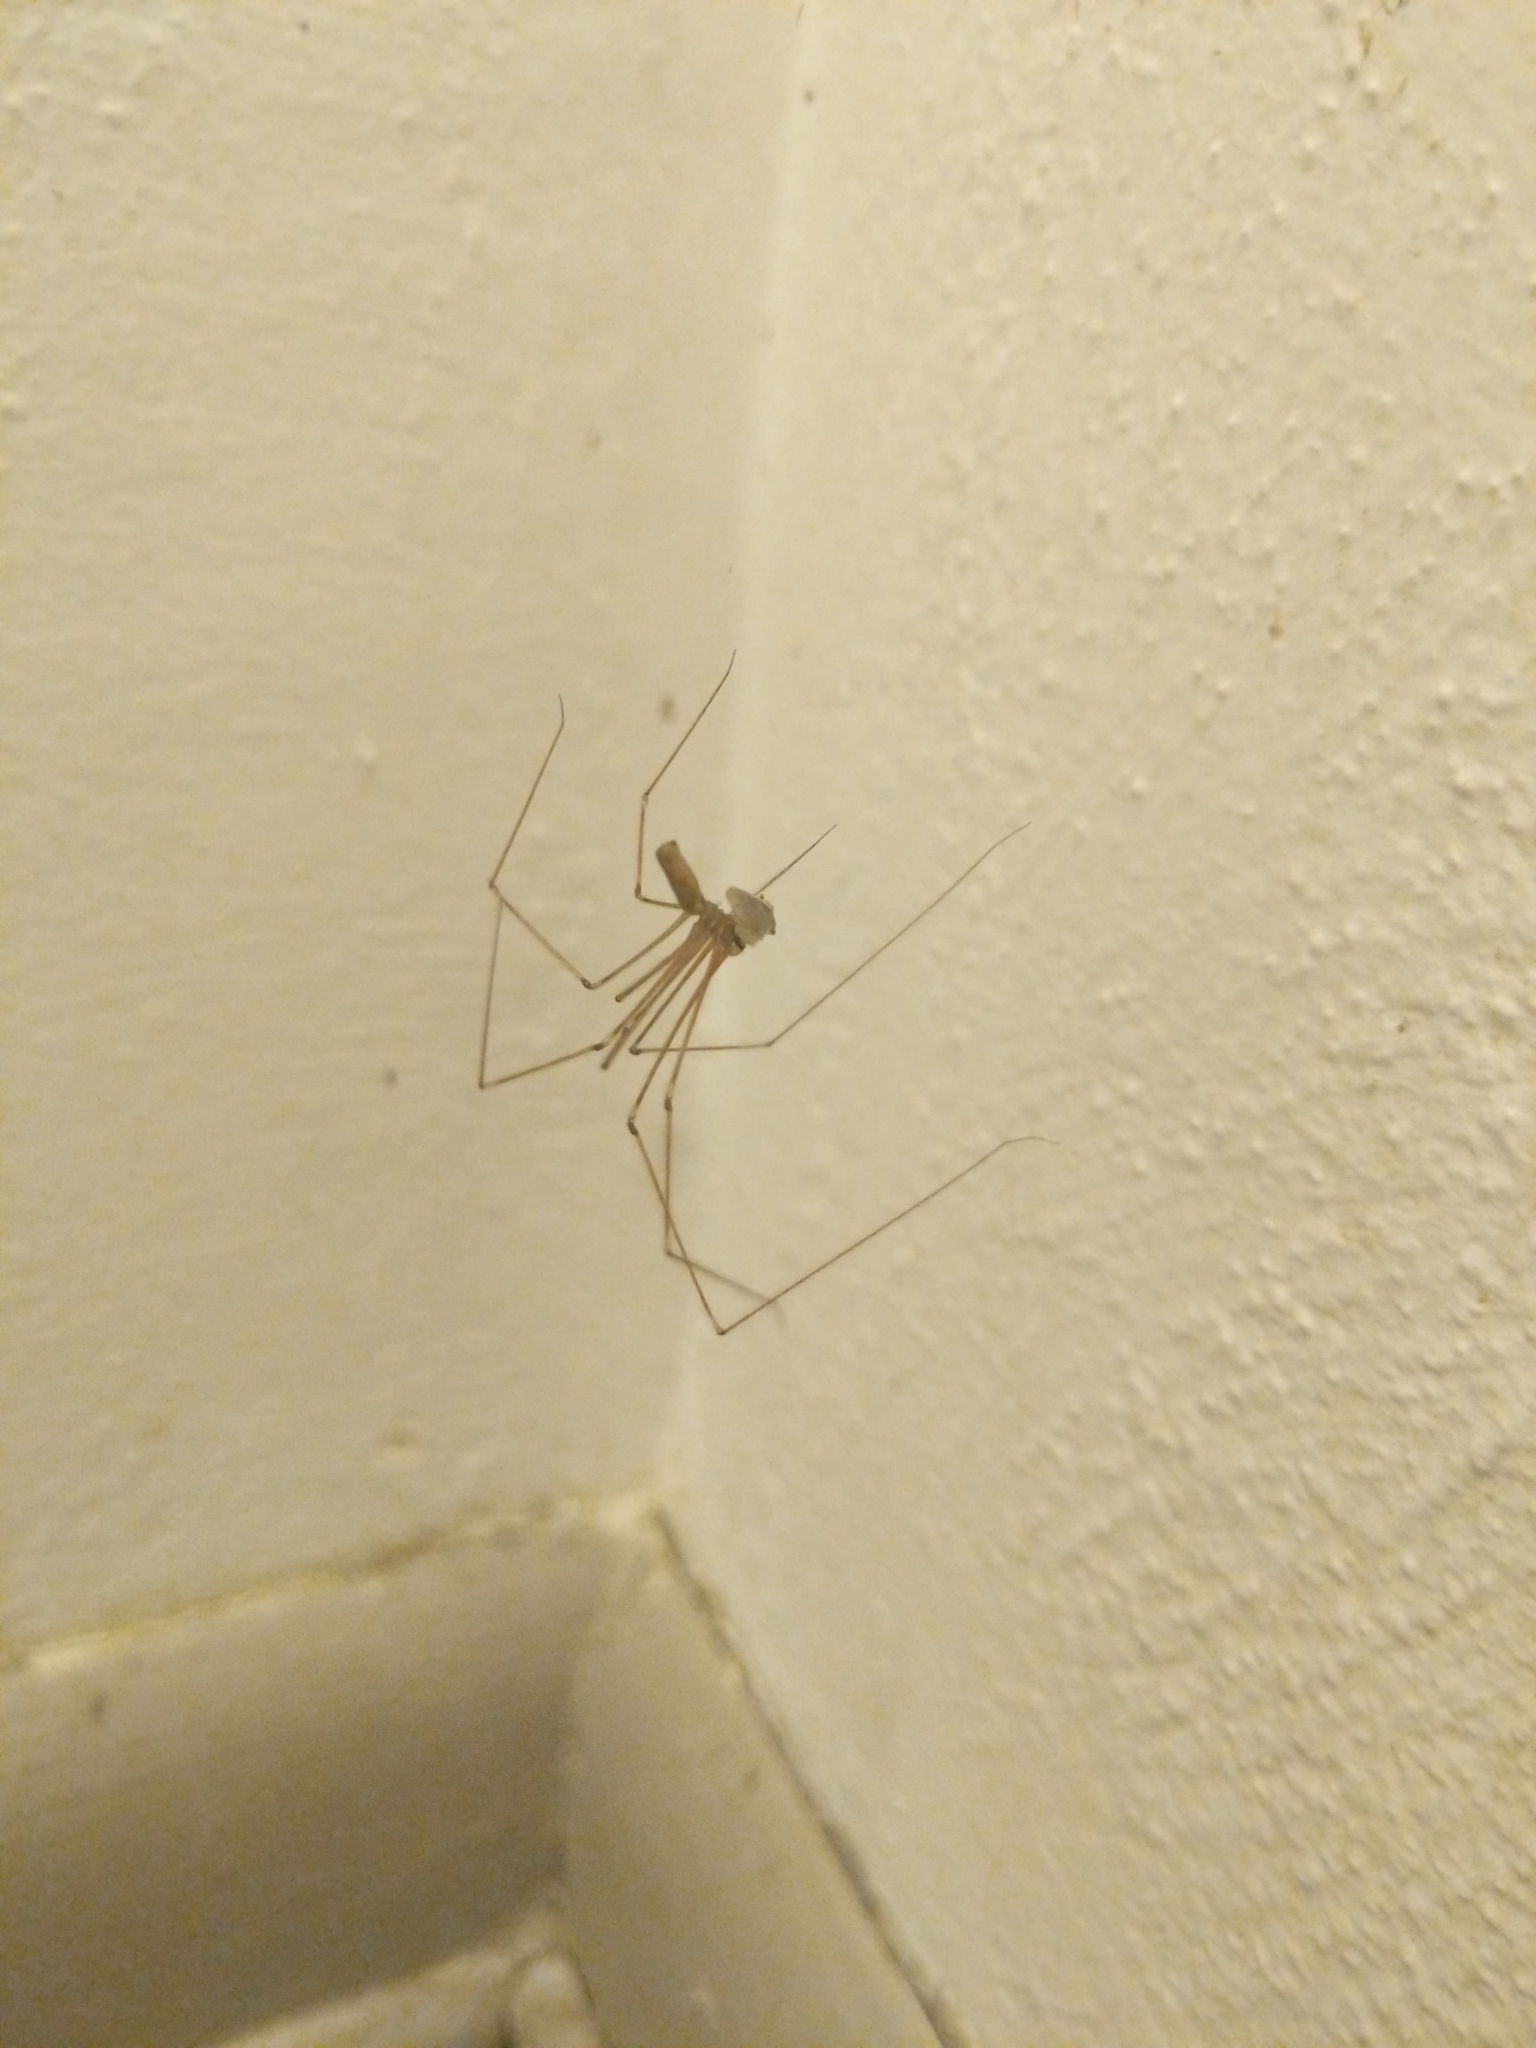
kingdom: Animalia
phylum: Arthropoda
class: Arachnida
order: Araneae
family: Pholcidae
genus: Pholcus
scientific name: Pholcus phalangioides
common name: Longbodied cellar spider
